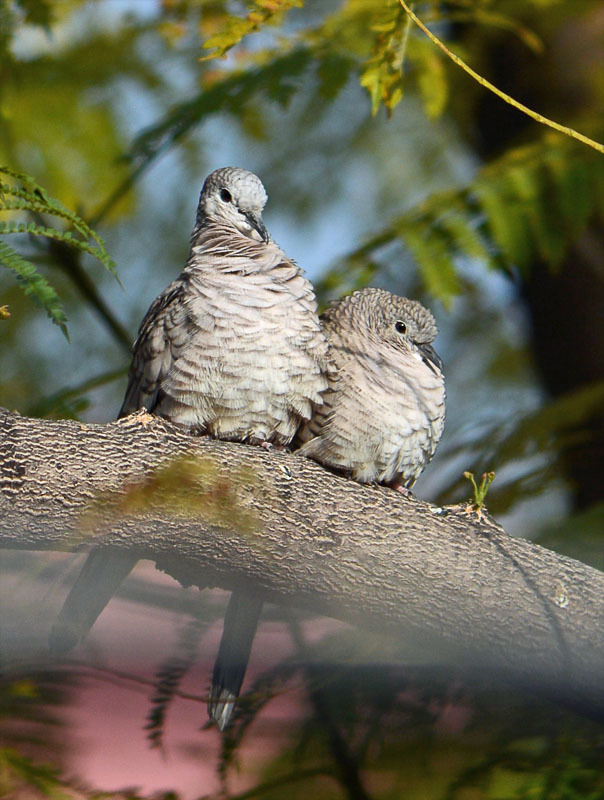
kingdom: Animalia
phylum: Chordata
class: Aves
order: Columbiformes
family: Columbidae
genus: Columbina
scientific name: Columbina inca
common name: Inca dove
